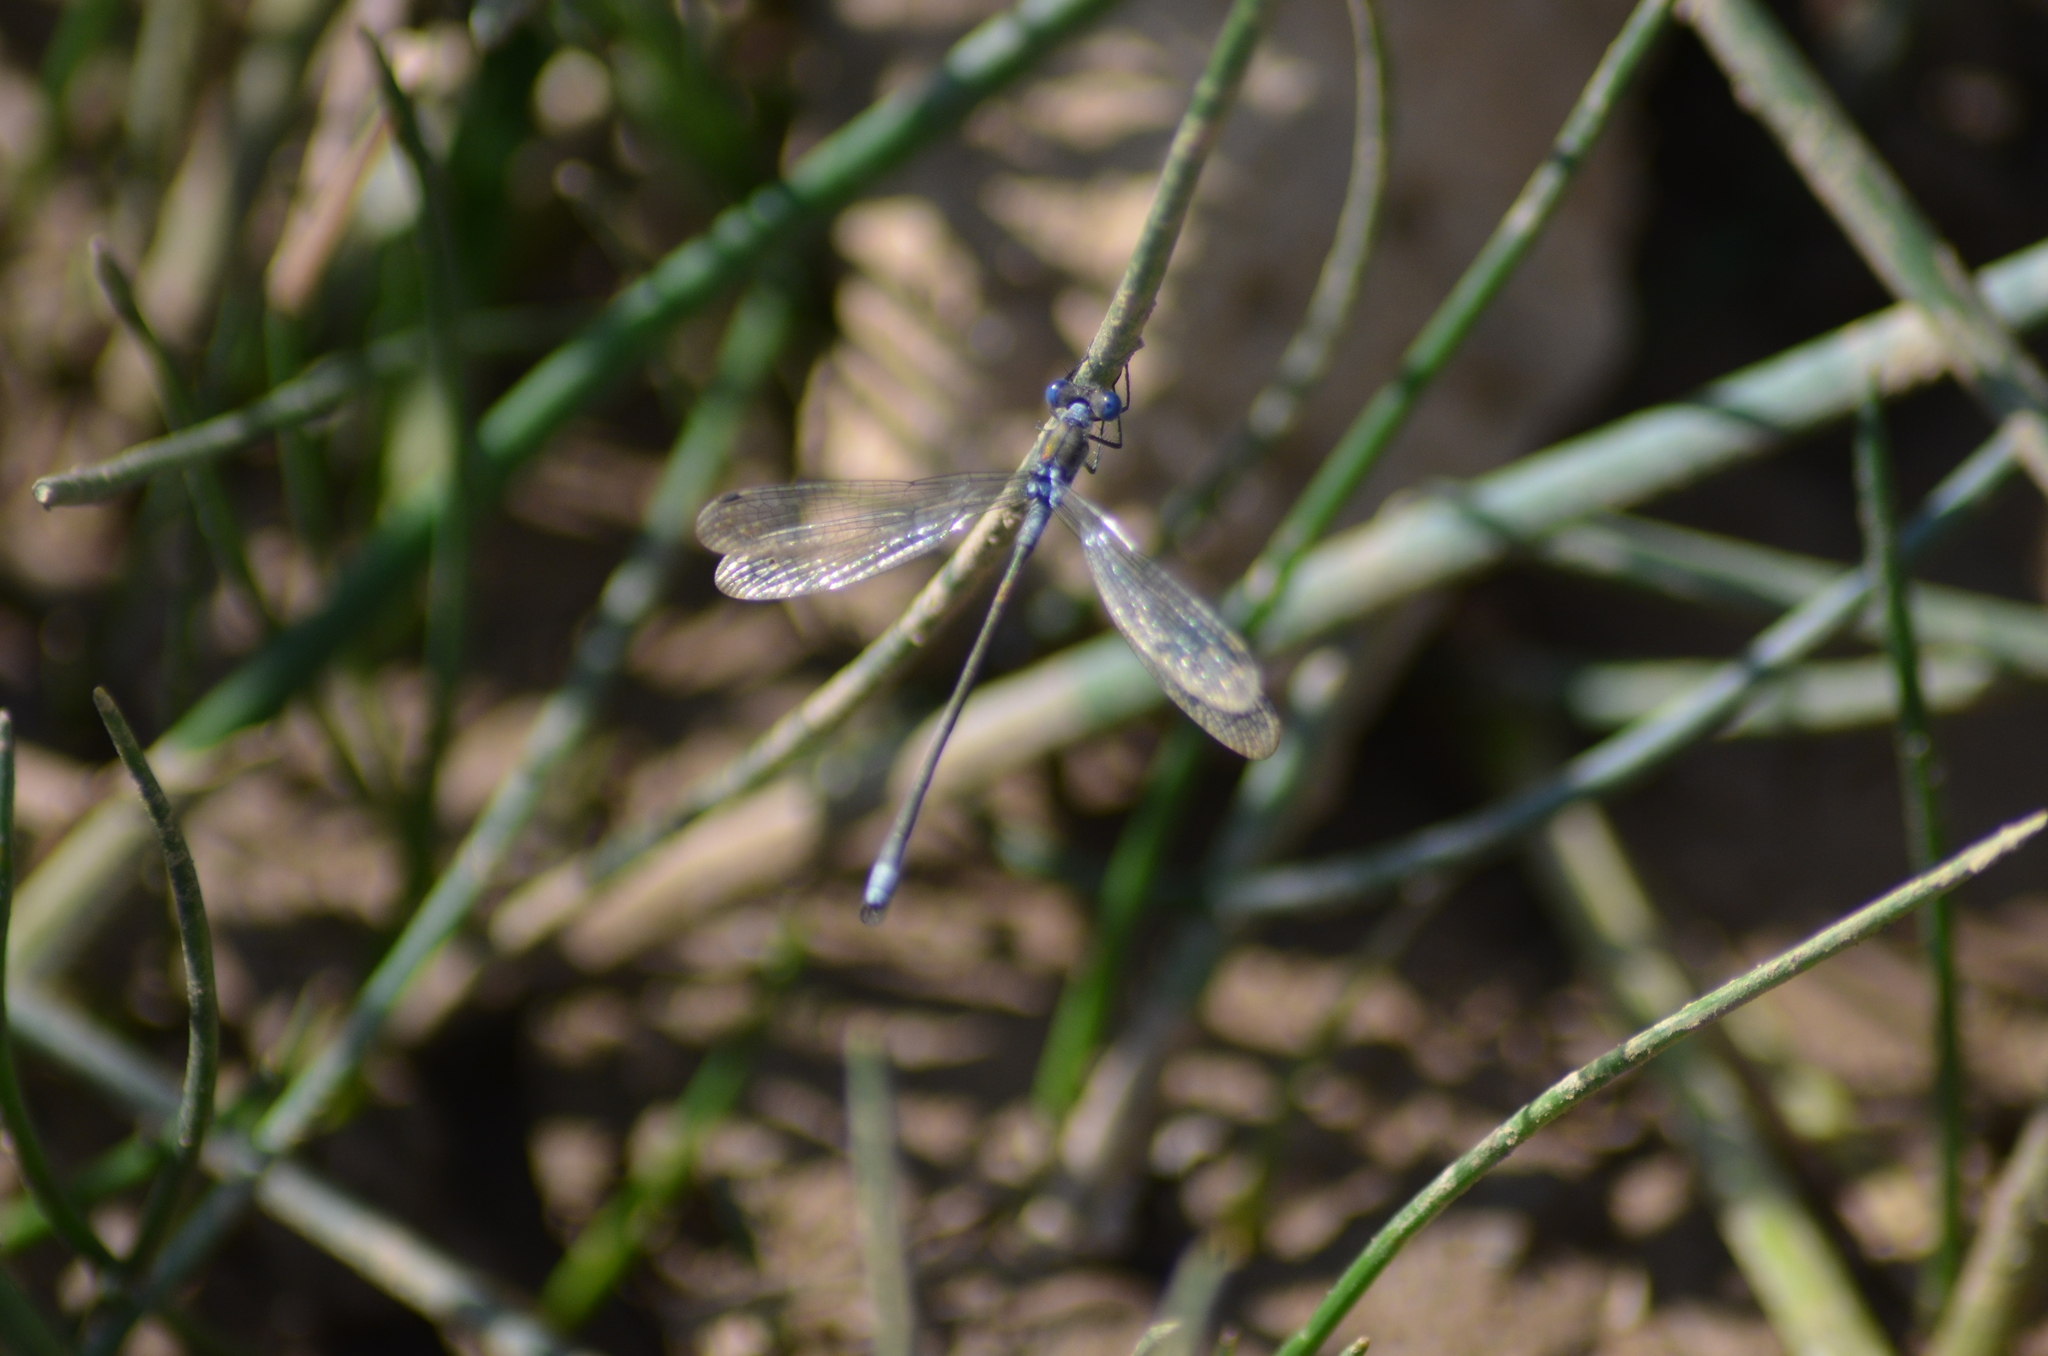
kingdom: Animalia
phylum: Arthropoda
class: Insecta
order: Odonata
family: Lestidae
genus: Lestes
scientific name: Lestes sponsa
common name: Common spreadwing
